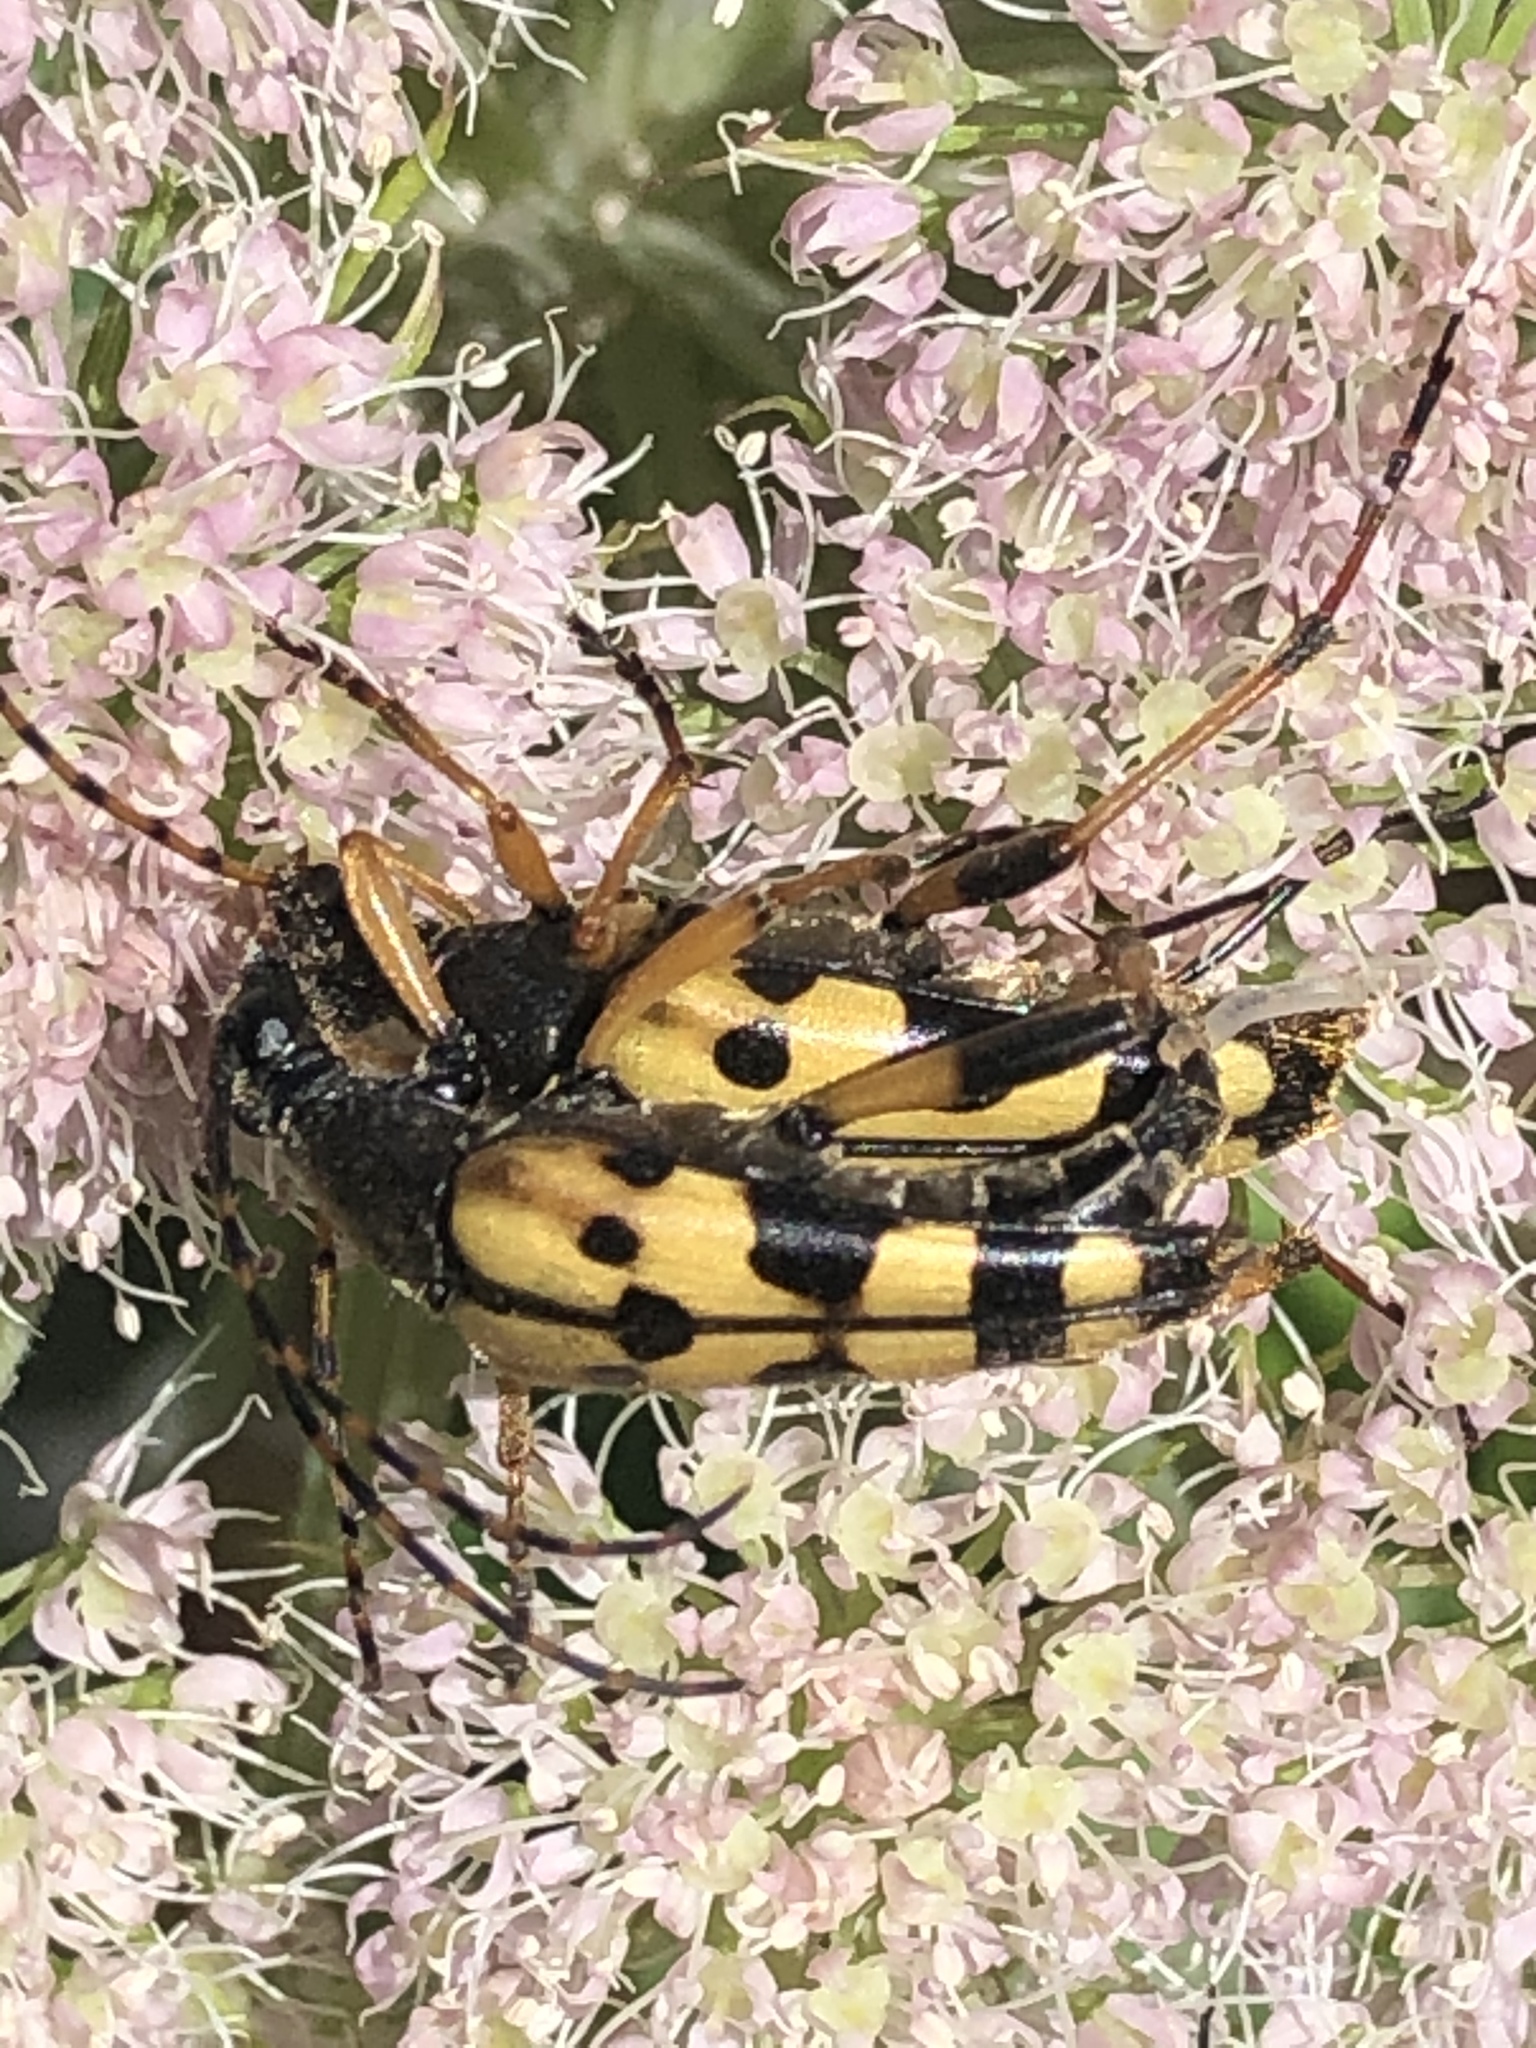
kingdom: Animalia
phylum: Arthropoda
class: Insecta
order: Coleoptera
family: Cerambycidae
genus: Rutpela
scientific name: Rutpela maculata
